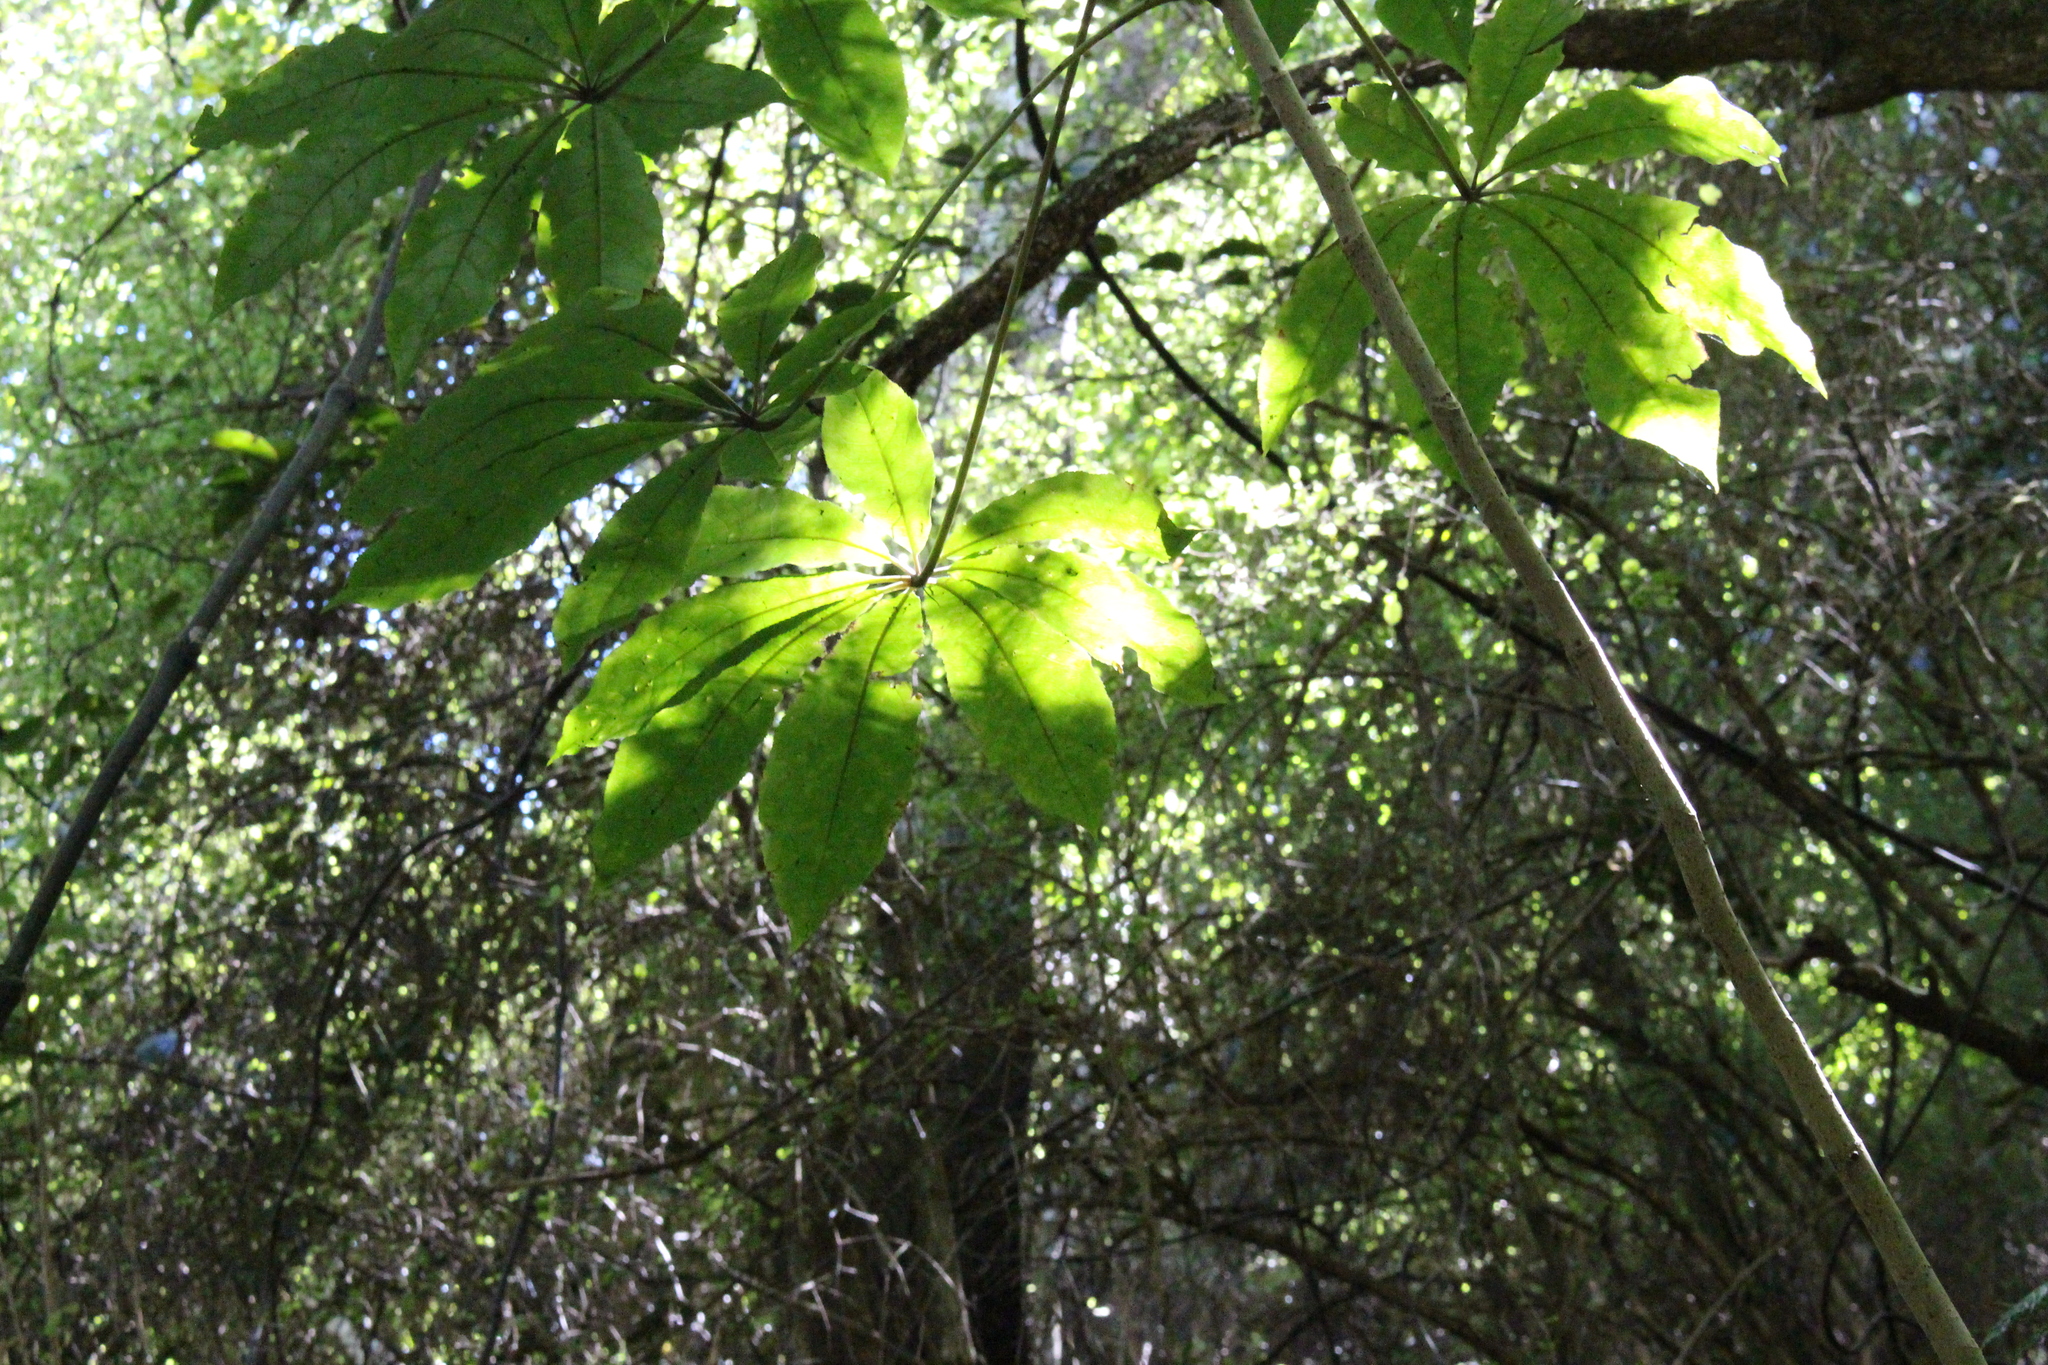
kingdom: Plantae
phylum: Tracheophyta
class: Magnoliopsida
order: Apiales
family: Araliaceae
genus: Schefflera
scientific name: Schefflera digitata
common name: Pate
